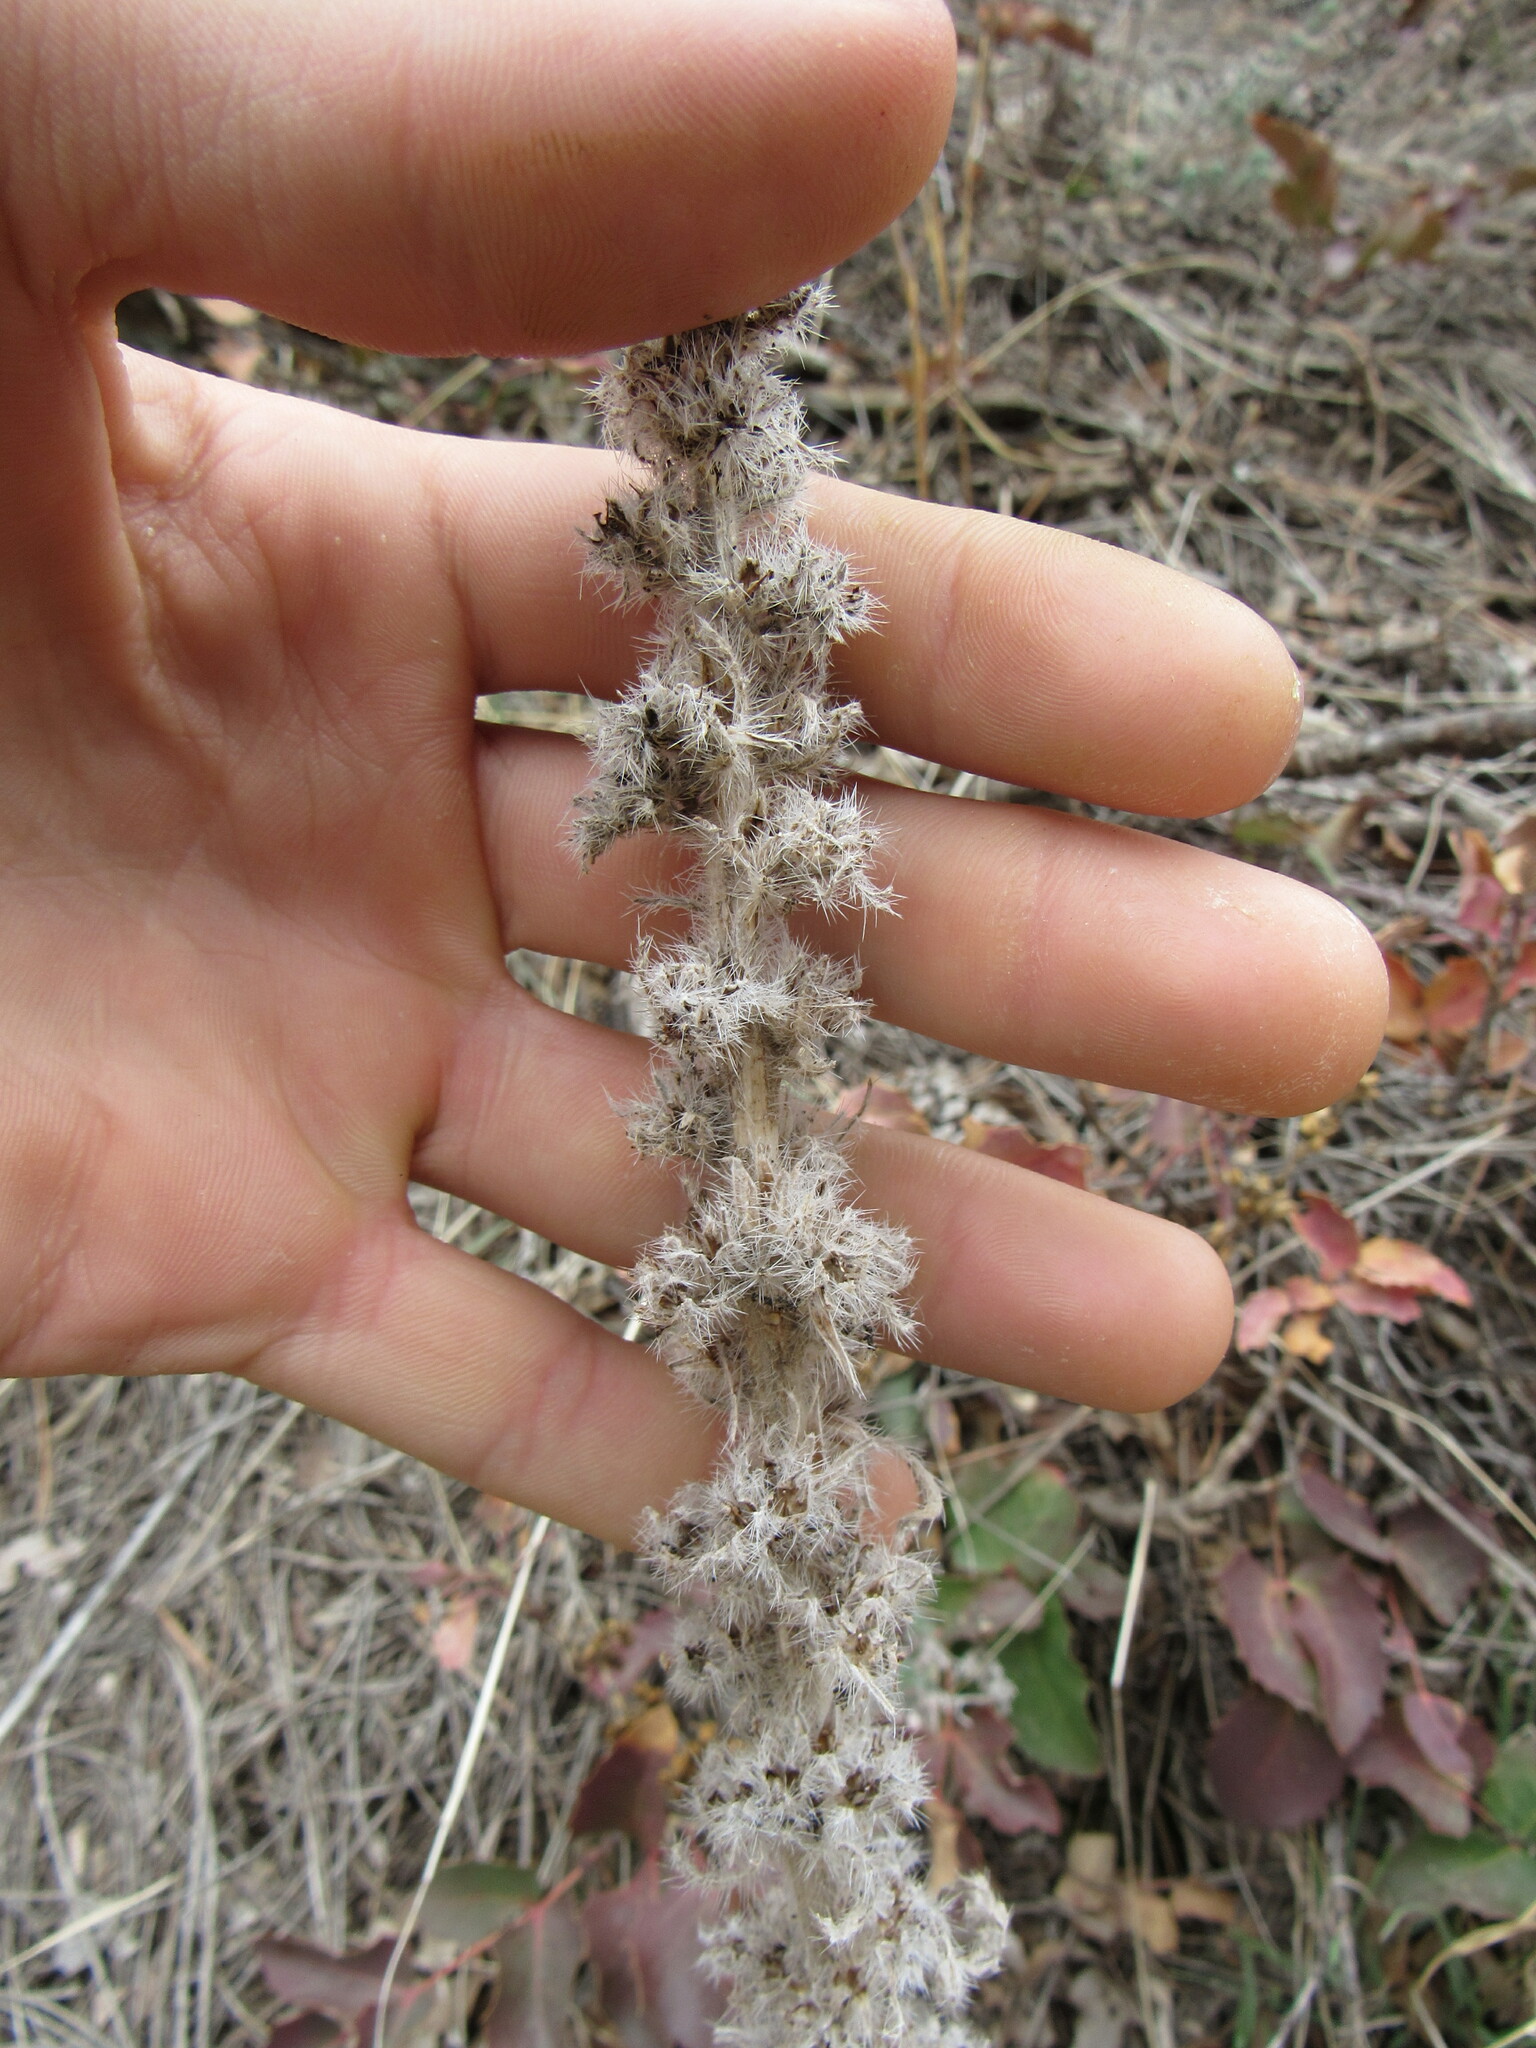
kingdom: Plantae
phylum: Tracheophyta
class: Magnoliopsida
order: Boraginales
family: Boraginaceae
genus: Oreocarya
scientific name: Oreocarya virgata
